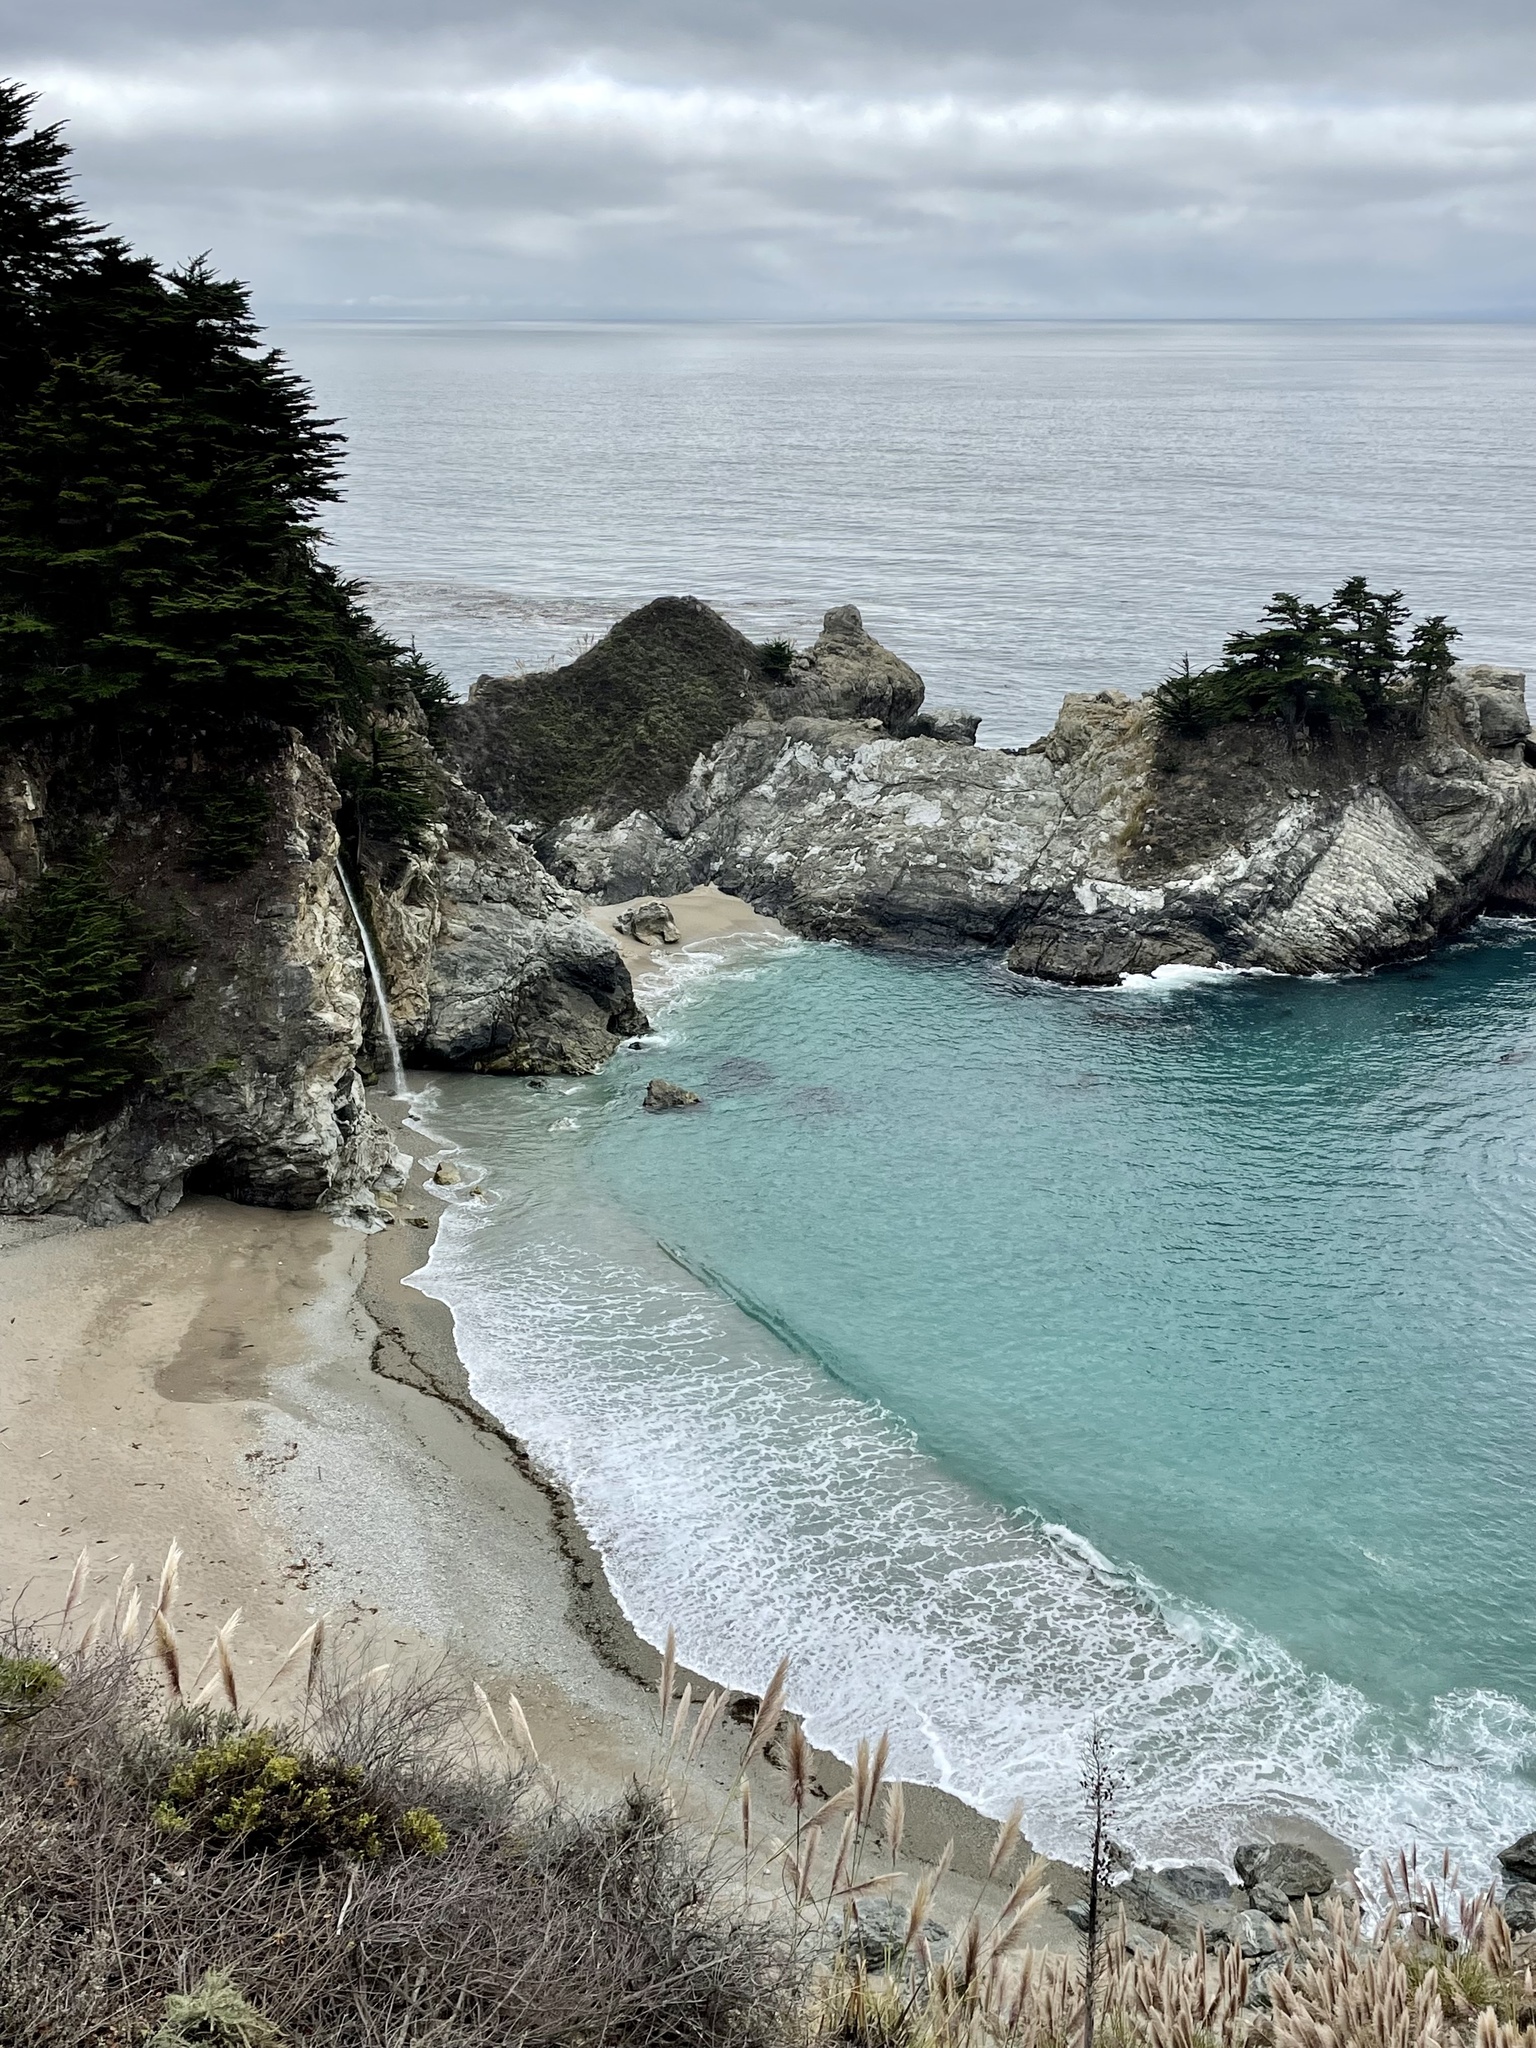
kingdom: Plantae
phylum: Tracheophyta
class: Liliopsida
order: Poales
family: Poaceae
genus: Cortaderia
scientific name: Cortaderia jubata
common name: Purple pampas grass
